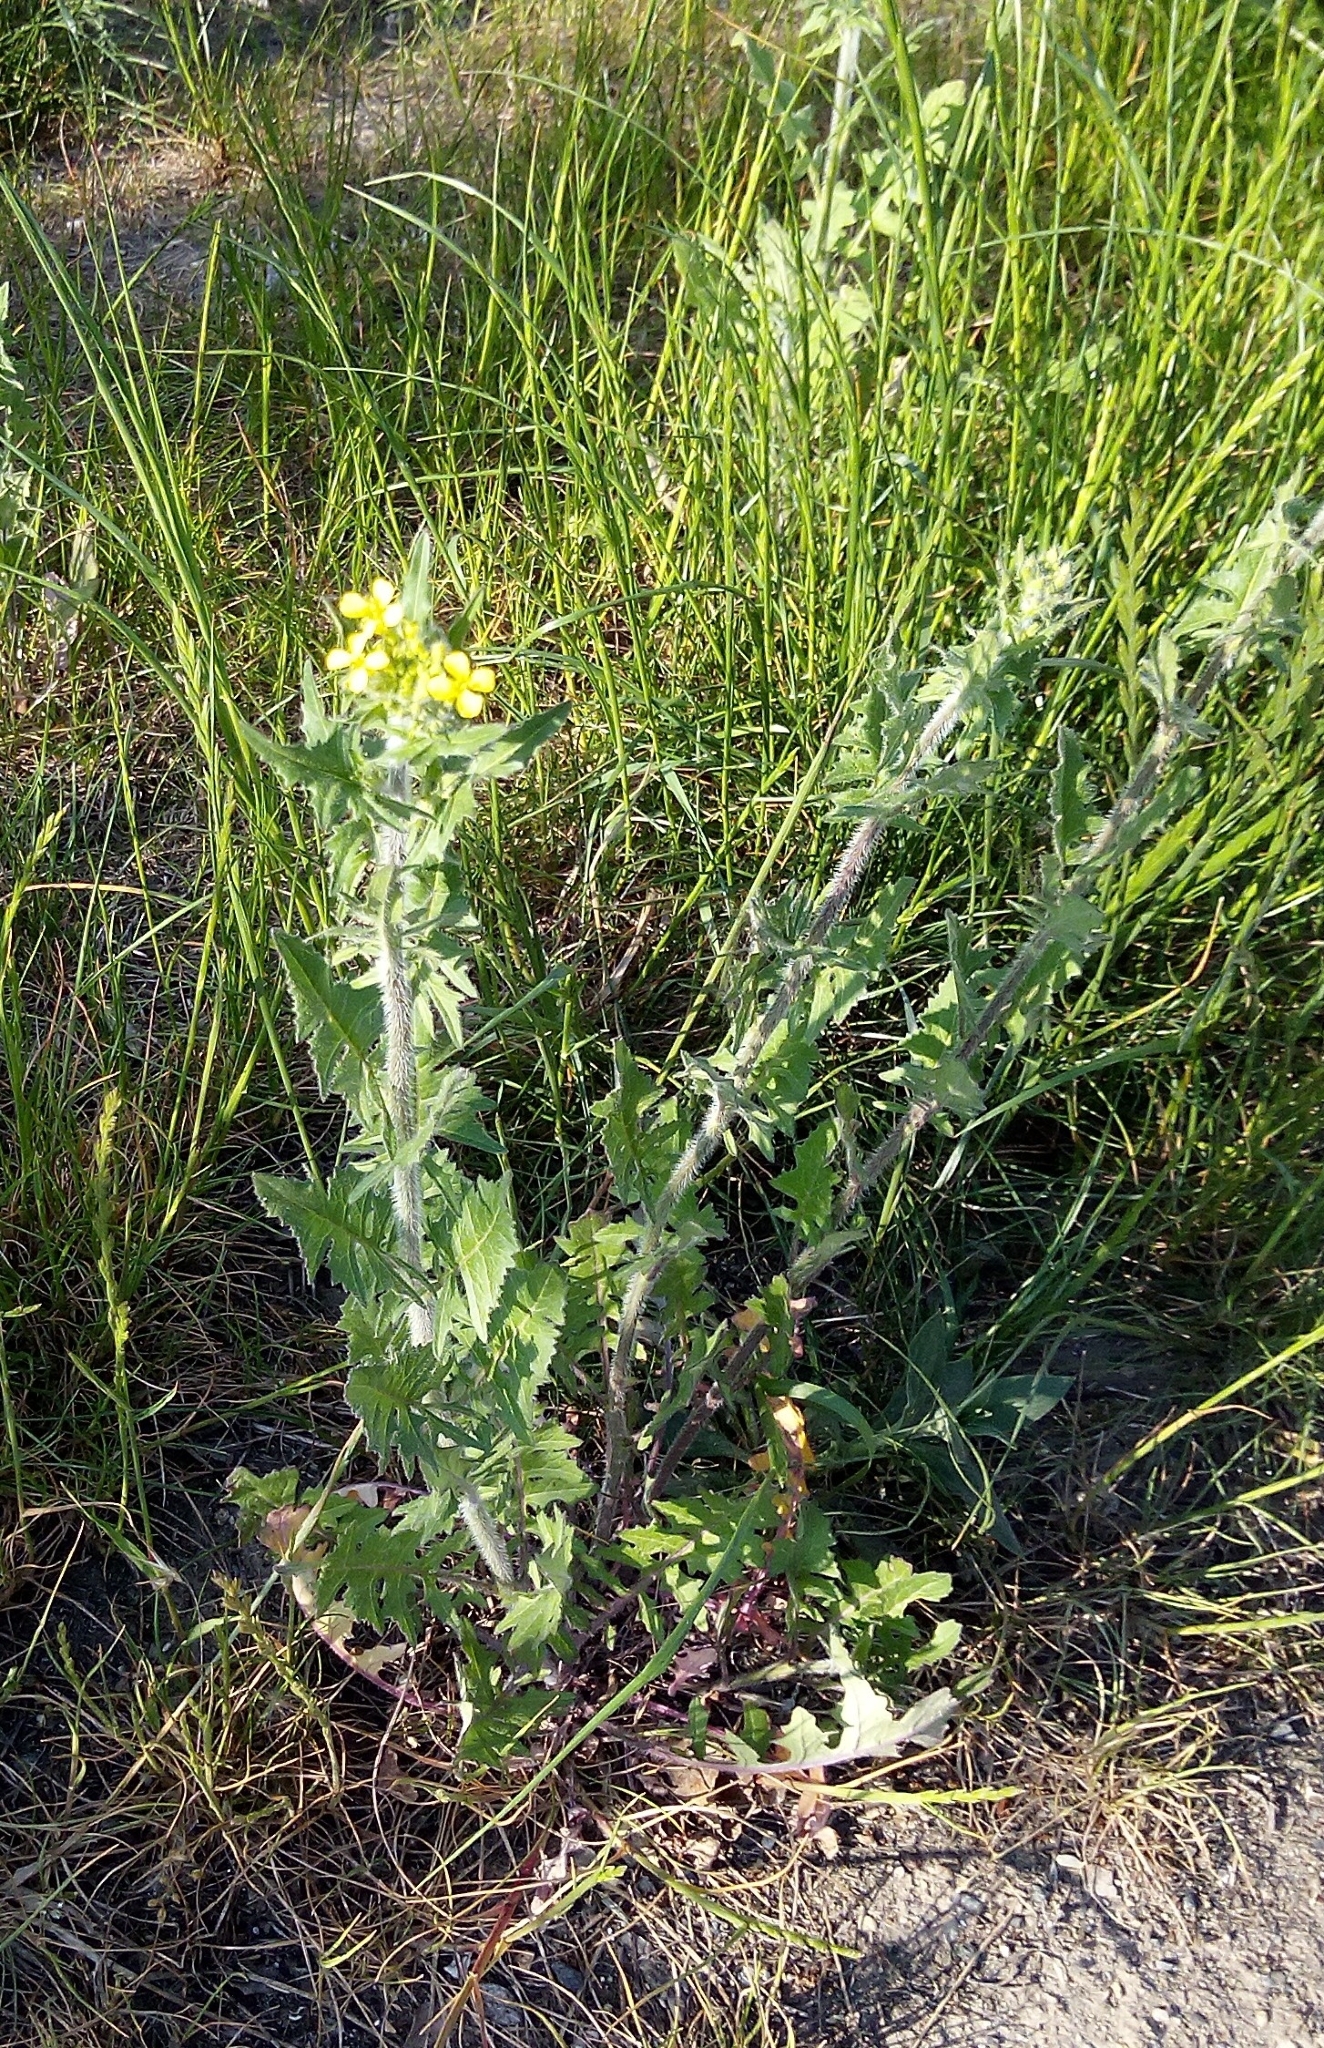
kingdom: Plantae
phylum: Tracheophyta
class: Magnoliopsida
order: Brassicales
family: Brassicaceae
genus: Sisymbrium
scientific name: Sisymbrium loeselii
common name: False london-rocket
